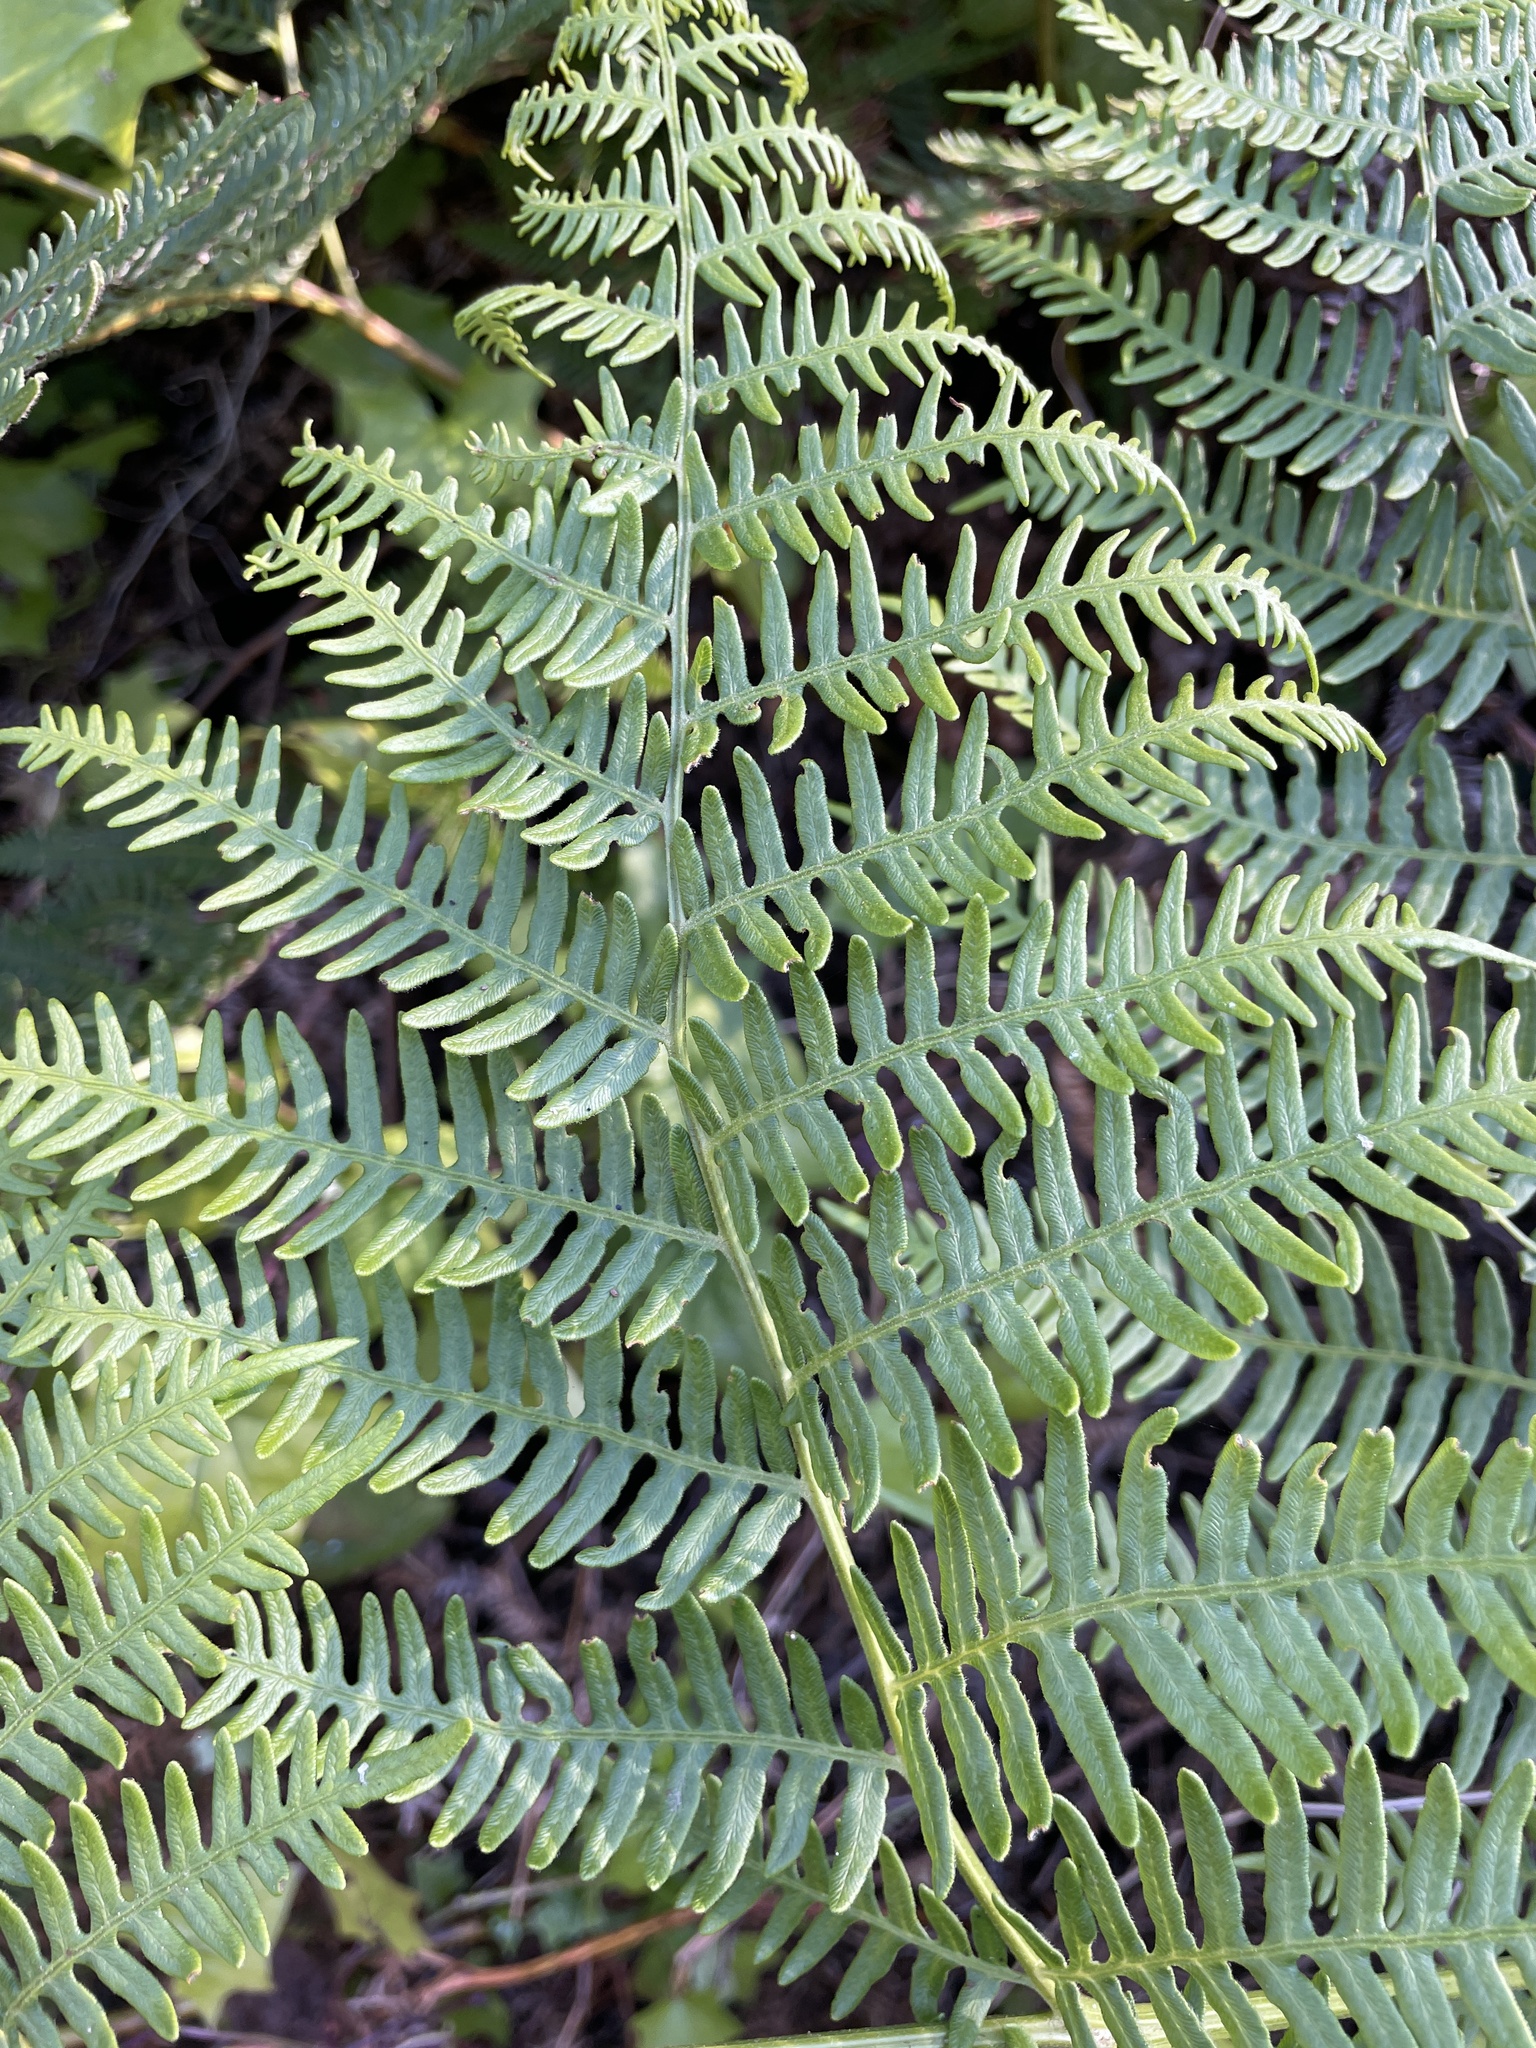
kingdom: Plantae
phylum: Tracheophyta
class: Polypodiopsida
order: Polypodiales
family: Dennstaedtiaceae
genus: Pteridium
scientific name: Pteridium aquilinum
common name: Bracken
